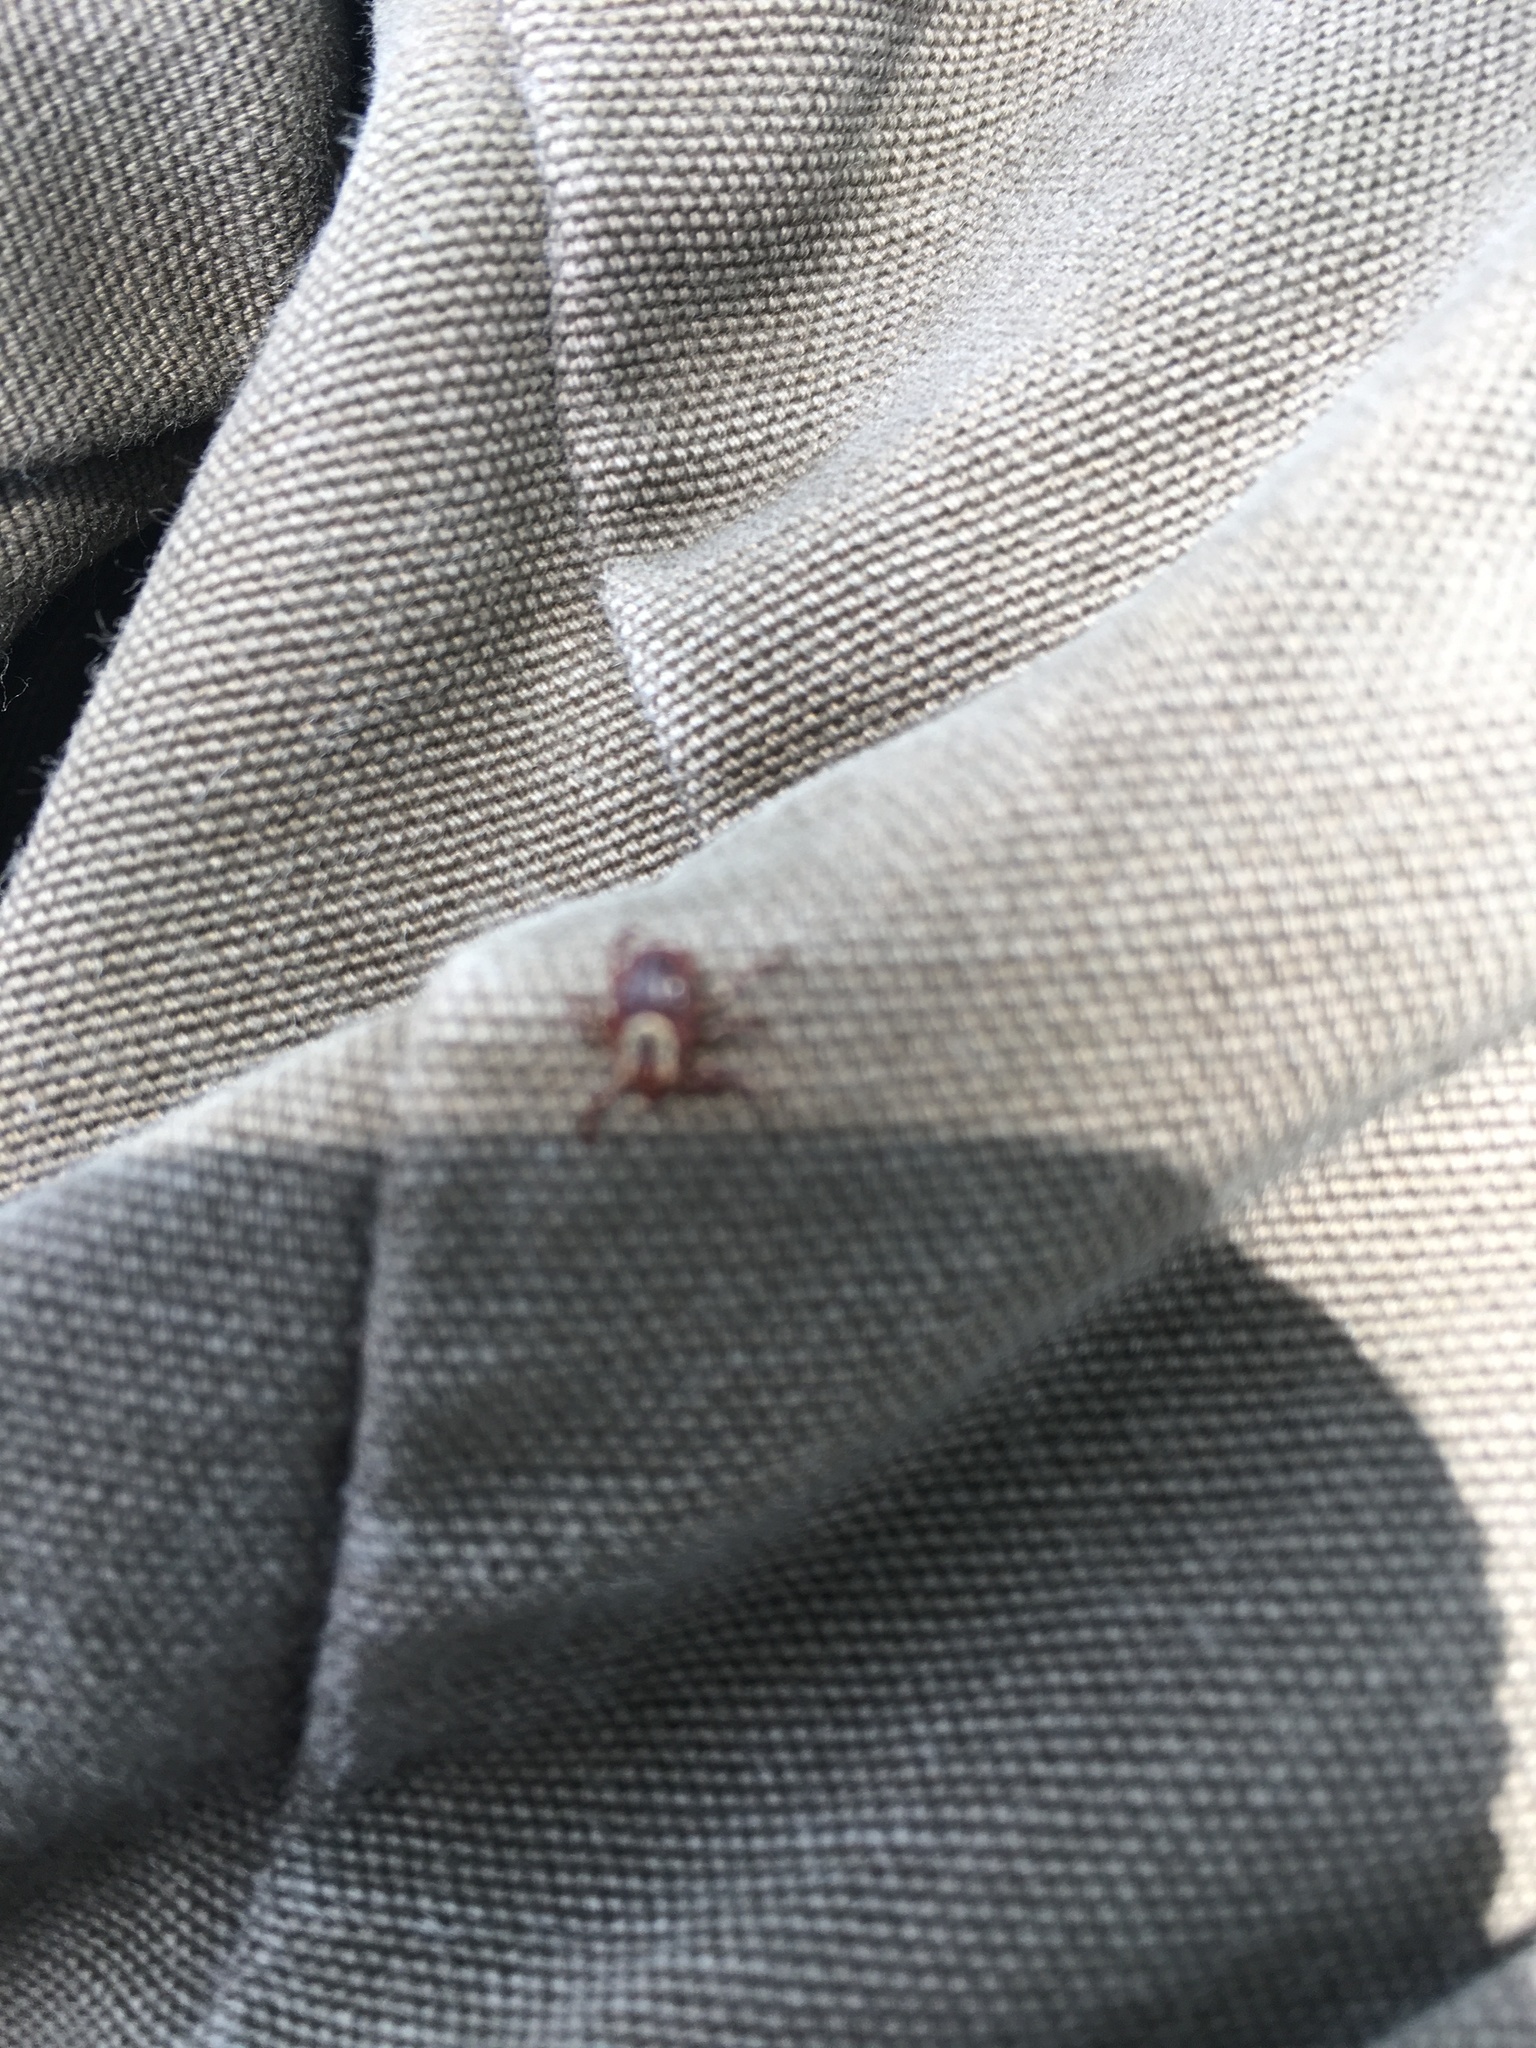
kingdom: Animalia
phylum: Arthropoda
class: Arachnida
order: Ixodida
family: Ixodidae
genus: Dermacentor
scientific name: Dermacentor variabilis
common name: American dog tick
